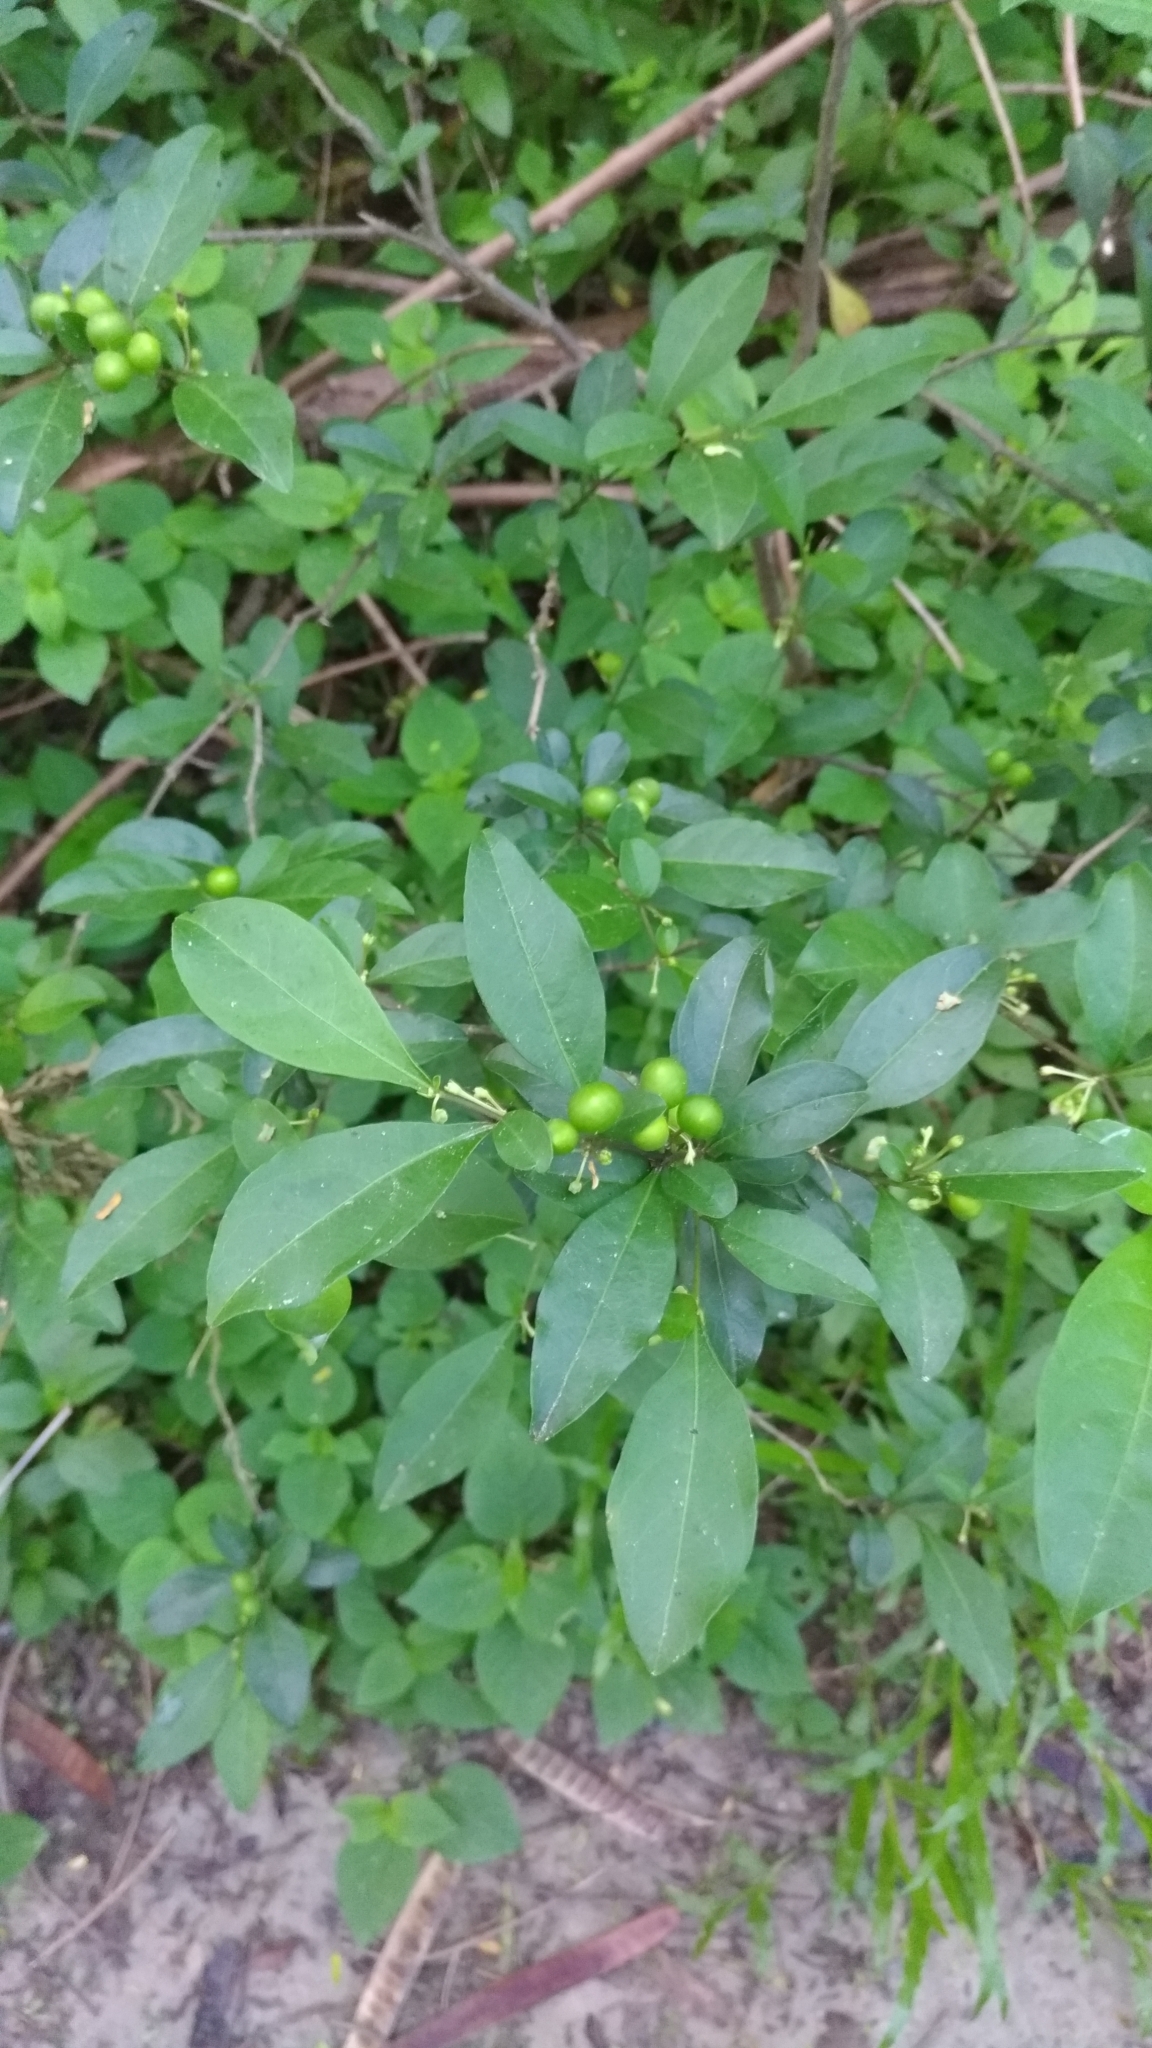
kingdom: Plantae
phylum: Tracheophyta
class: Magnoliopsida
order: Solanales
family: Solanaceae
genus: Solanum
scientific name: Solanum diphyllum
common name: Twoleaf nightshade
